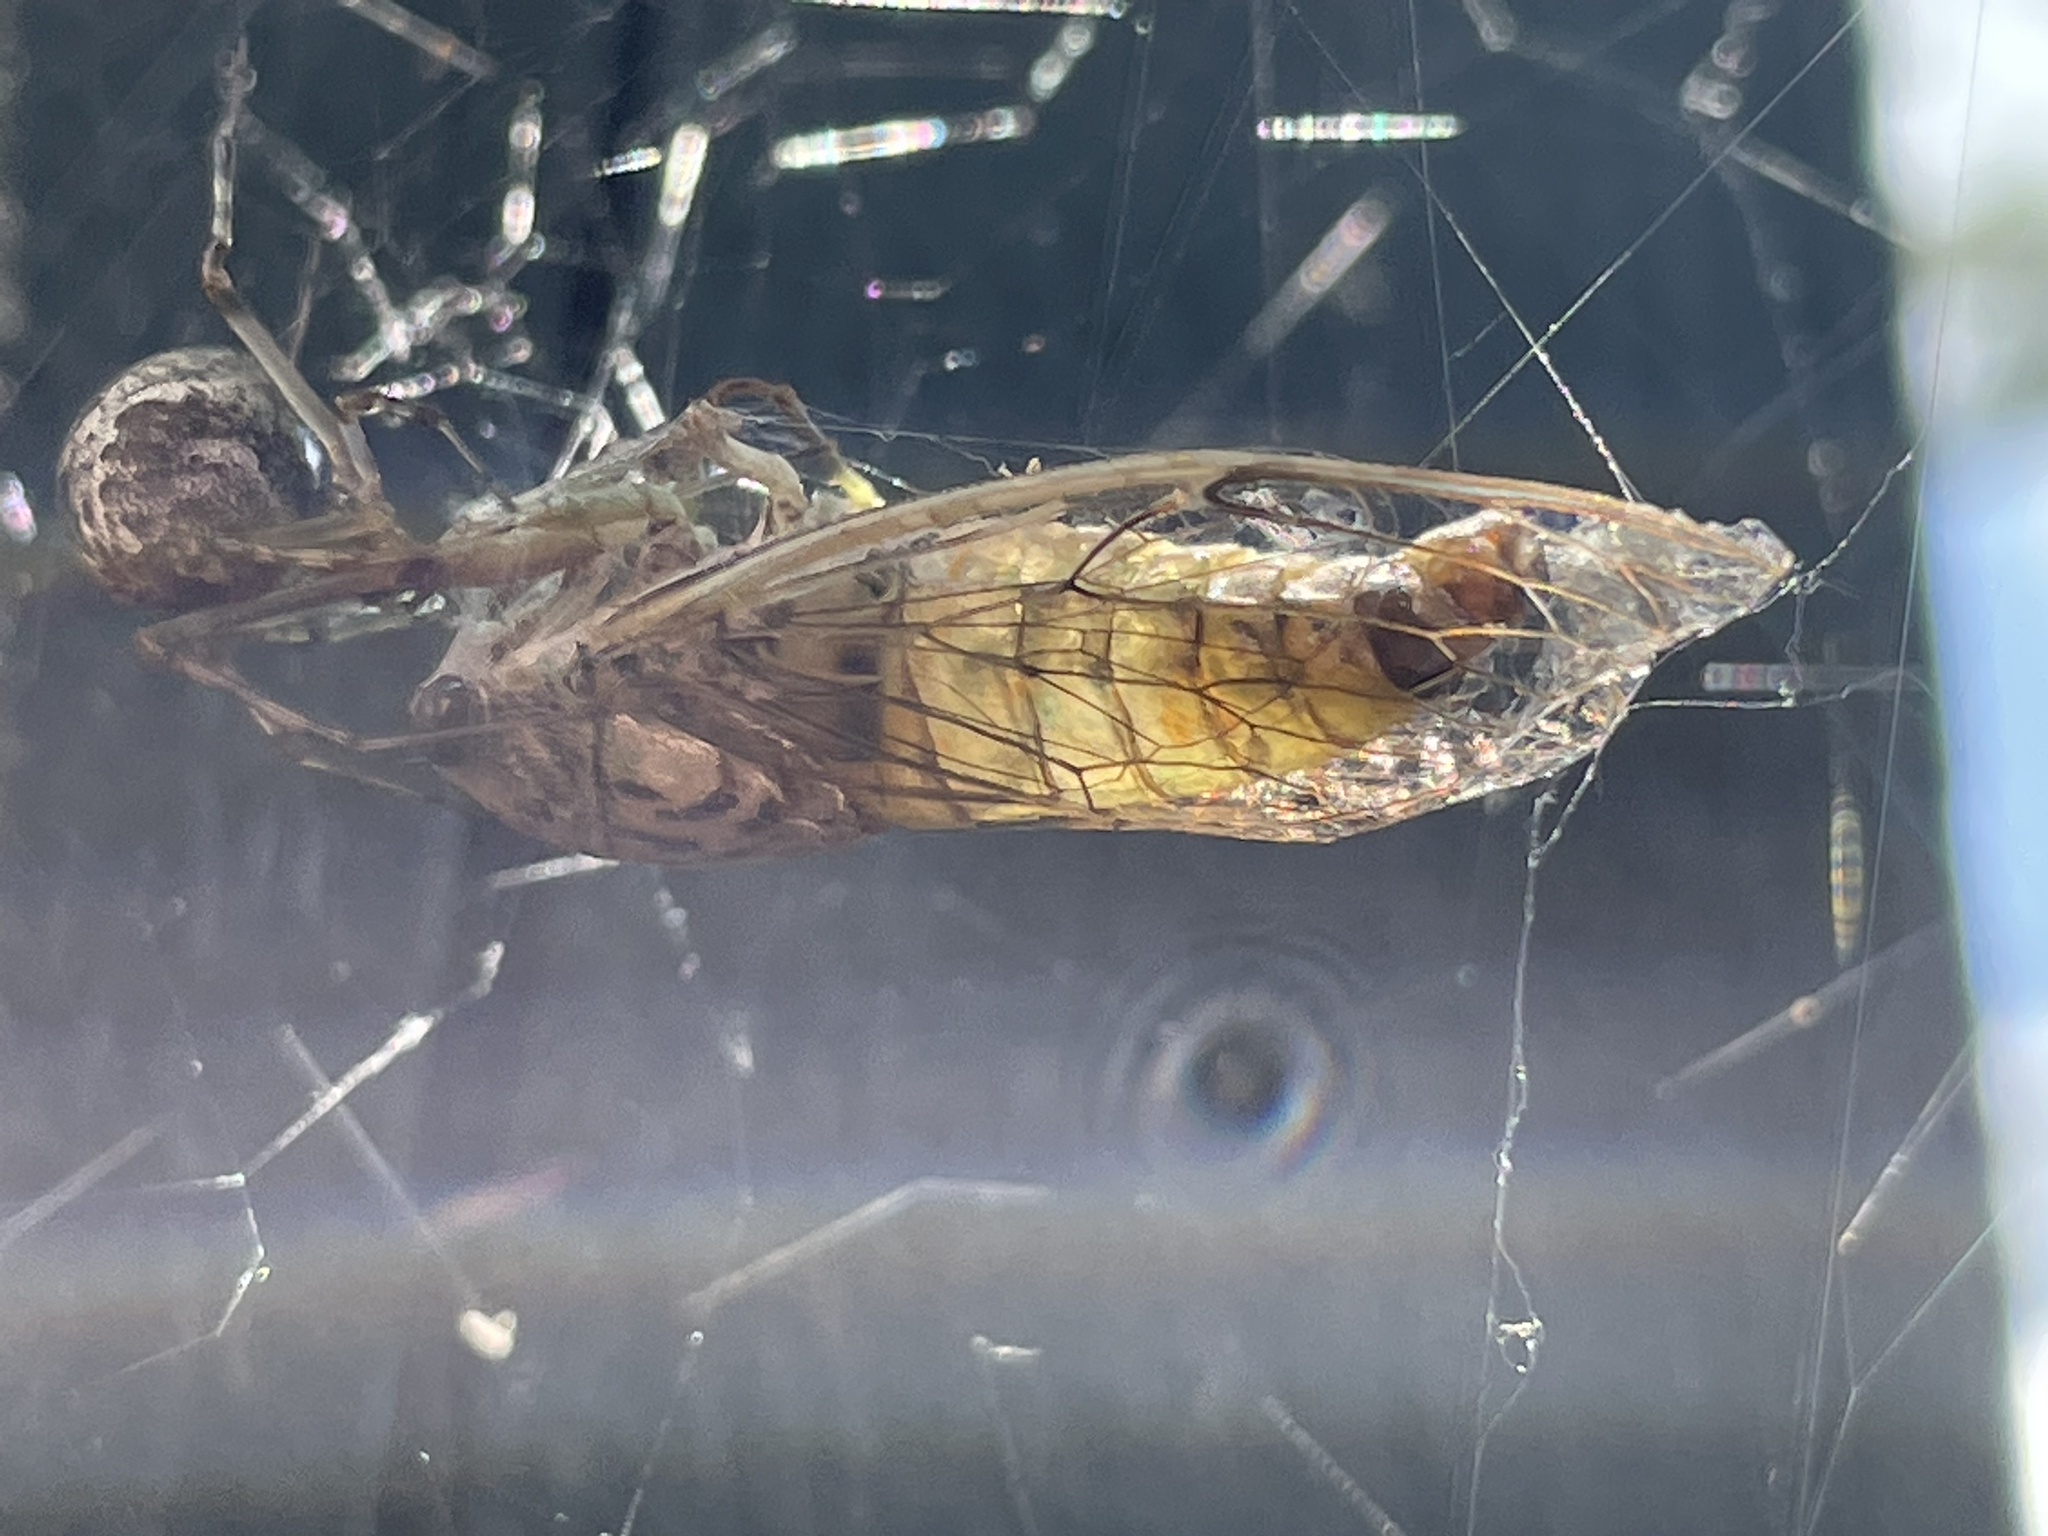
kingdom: Animalia
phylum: Arthropoda
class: Insecta
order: Hemiptera
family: Cicadidae
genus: Neocicada
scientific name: Neocicada hieroglyphica
